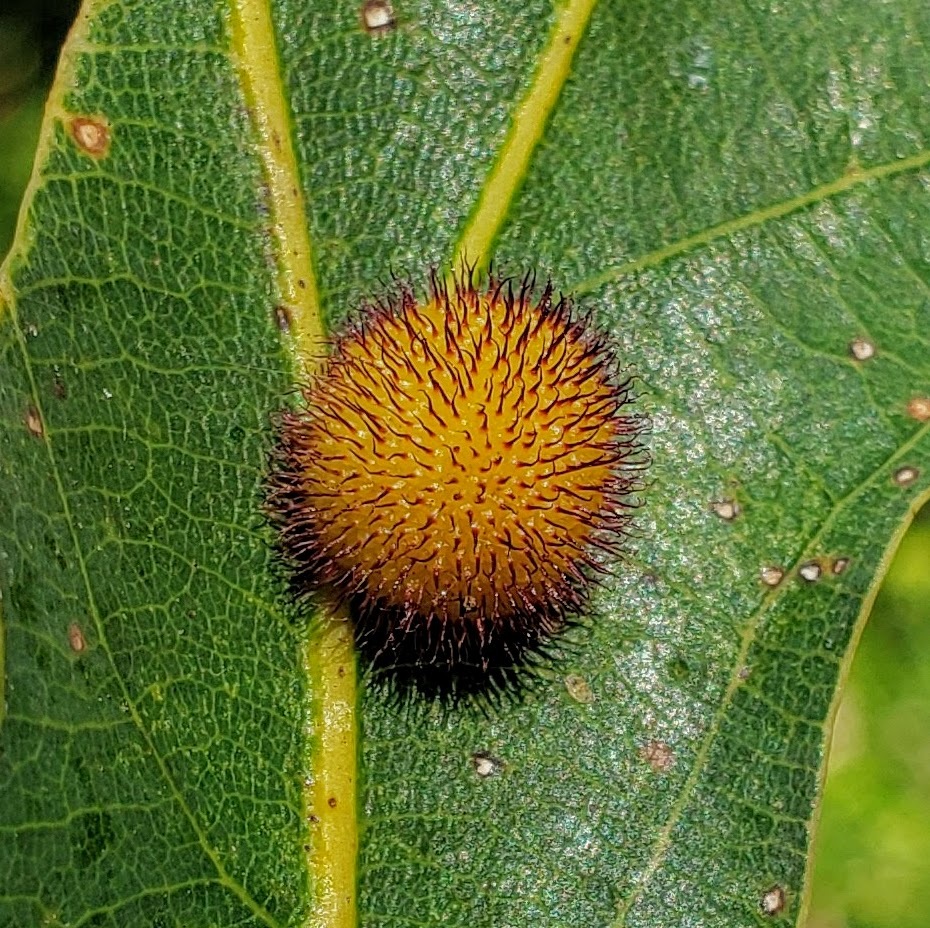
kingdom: Animalia
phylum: Arthropoda
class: Insecta
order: Hymenoptera
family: Cynipidae
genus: Acraspis
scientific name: Acraspis erinacei
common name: Hedgehog gall wasp
